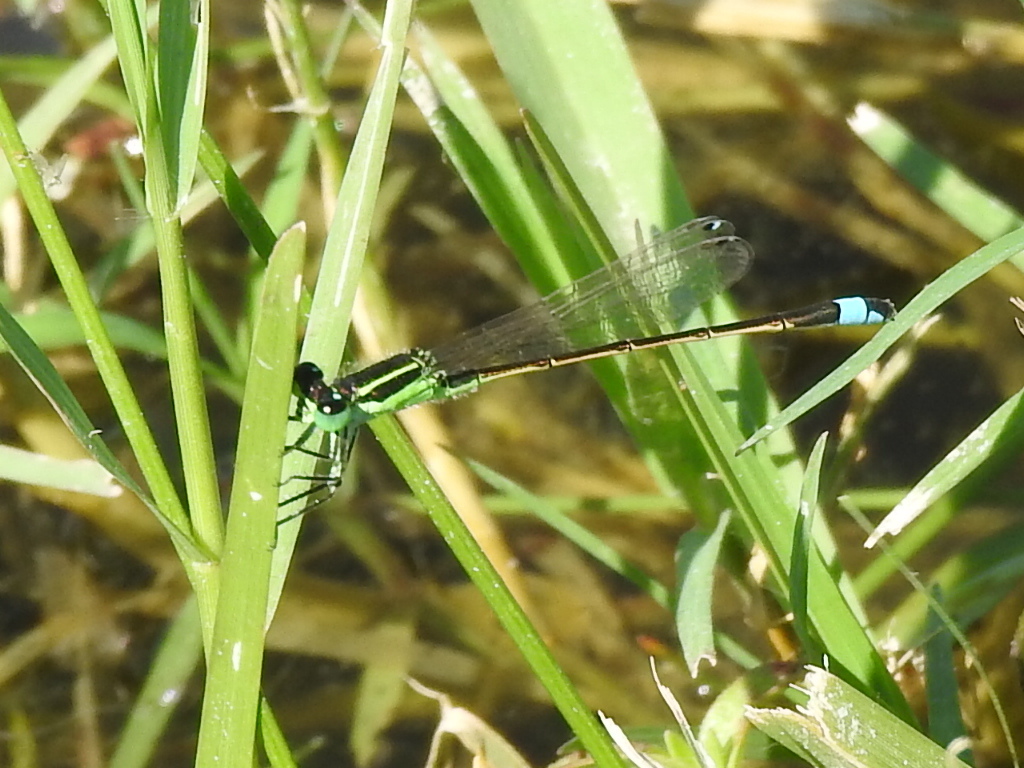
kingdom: Animalia
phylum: Arthropoda
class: Insecta
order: Odonata
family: Coenagrionidae
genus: Ischnura
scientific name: Ischnura ramburii
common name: Rambur's forktail
